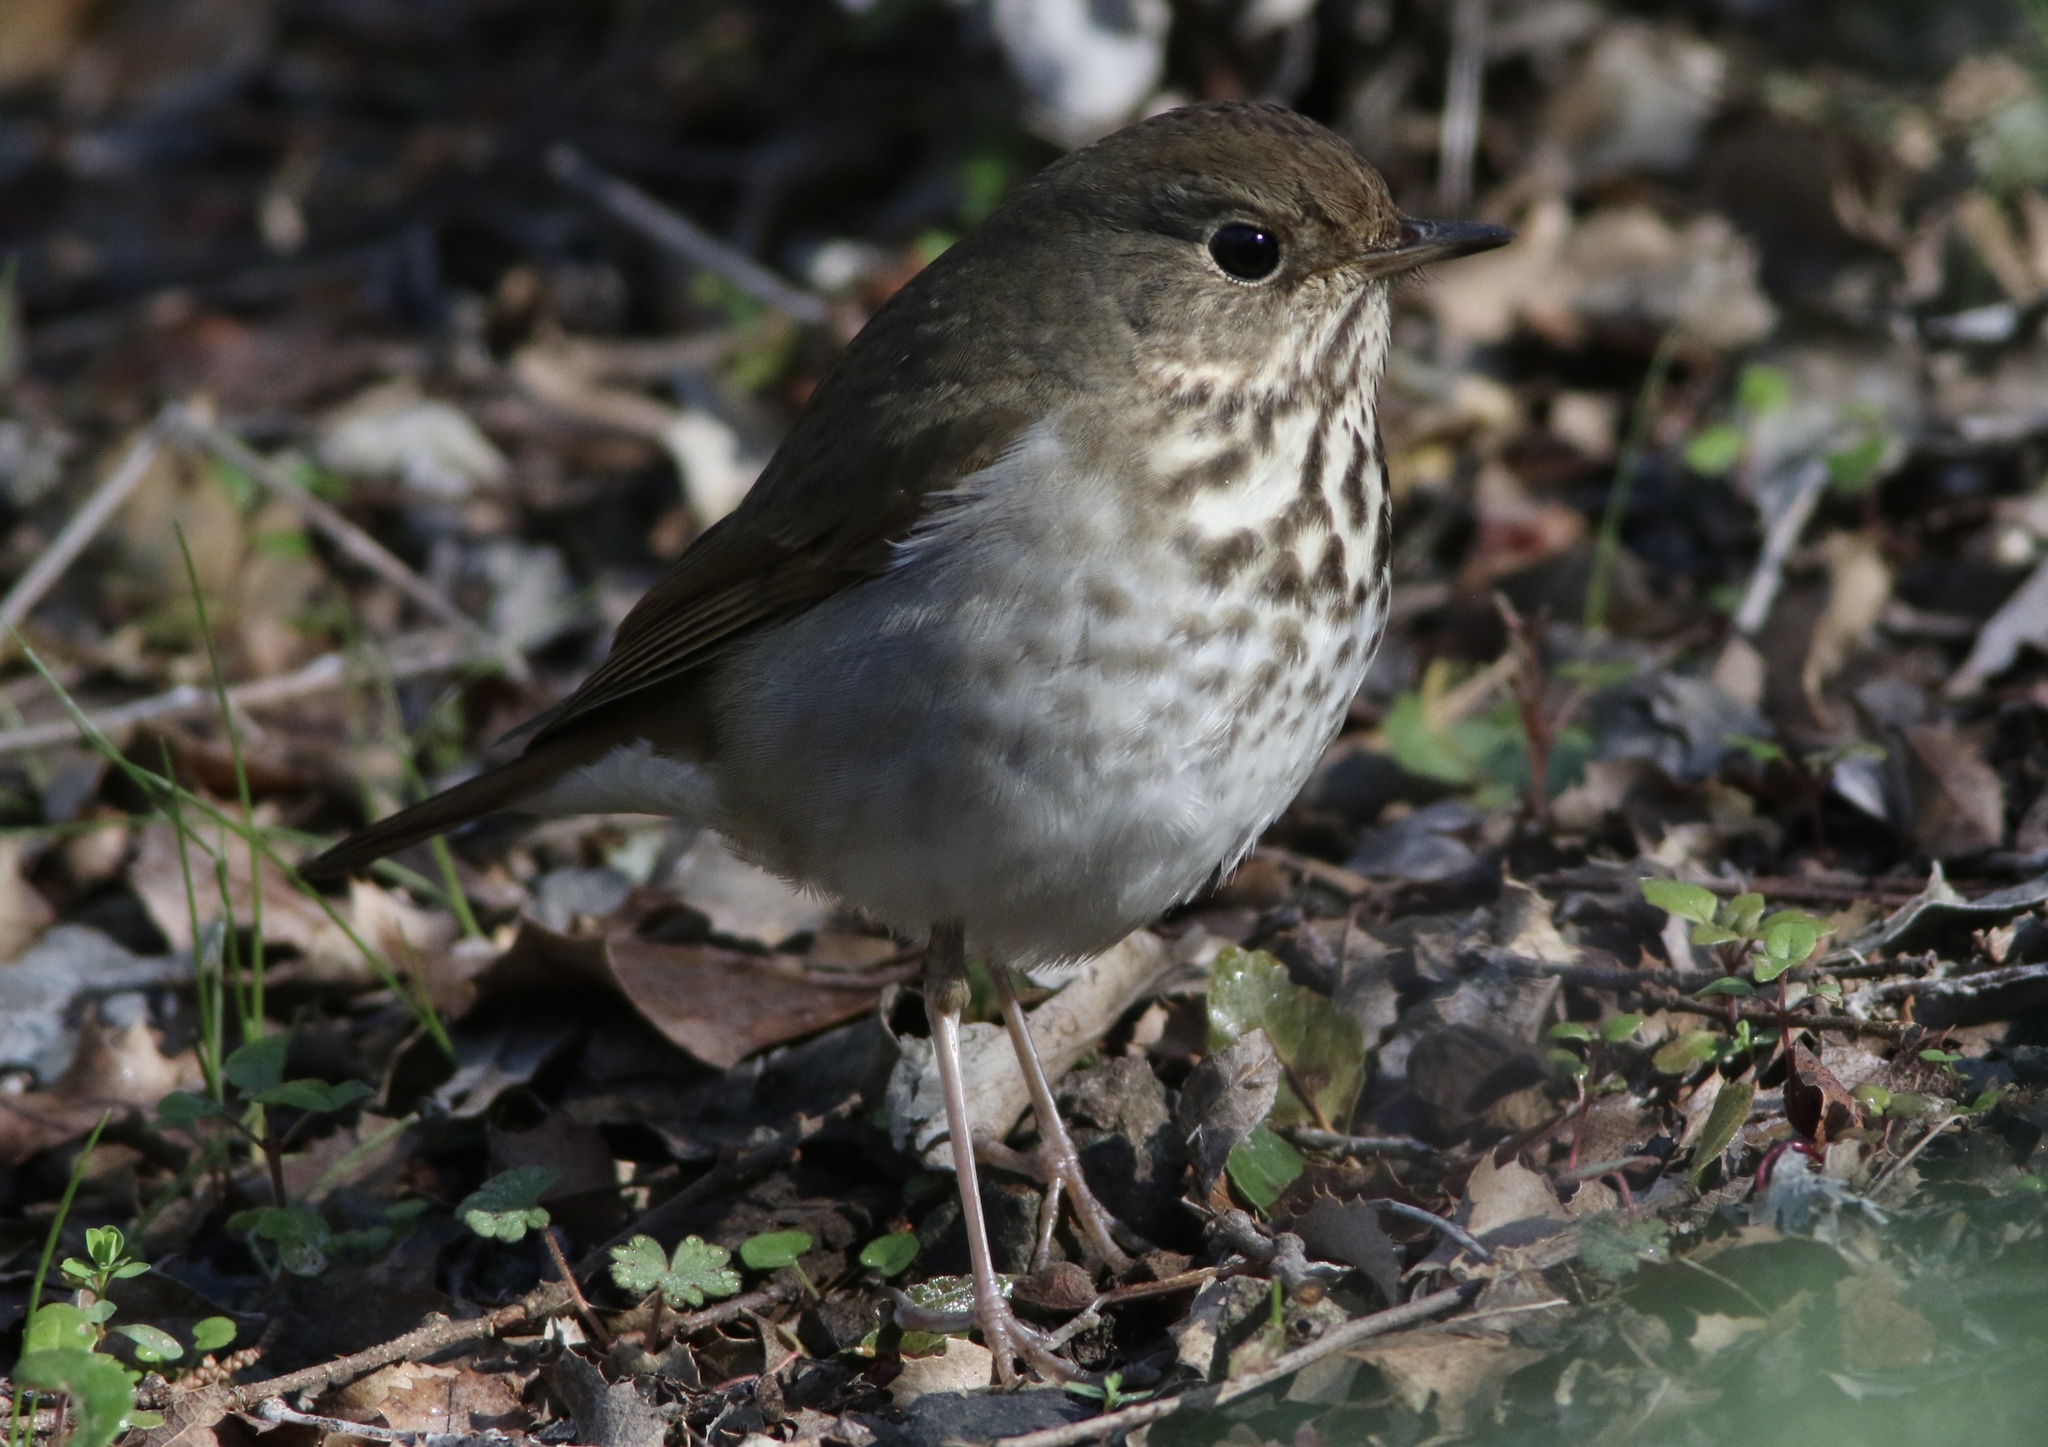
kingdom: Animalia
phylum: Chordata
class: Aves
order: Passeriformes
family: Turdidae
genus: Catharus
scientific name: Catharus guttatus
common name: Hermit thrush
